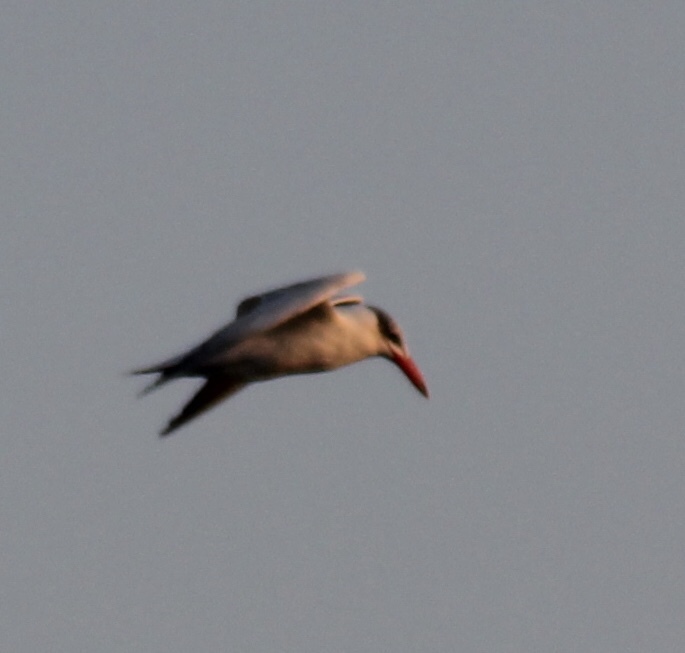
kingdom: Animalia
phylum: Chordata
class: Aves
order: Charadriiformes
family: Laridae
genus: Hydroprogne
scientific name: Hydroprogne caspia
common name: Caspian tern
